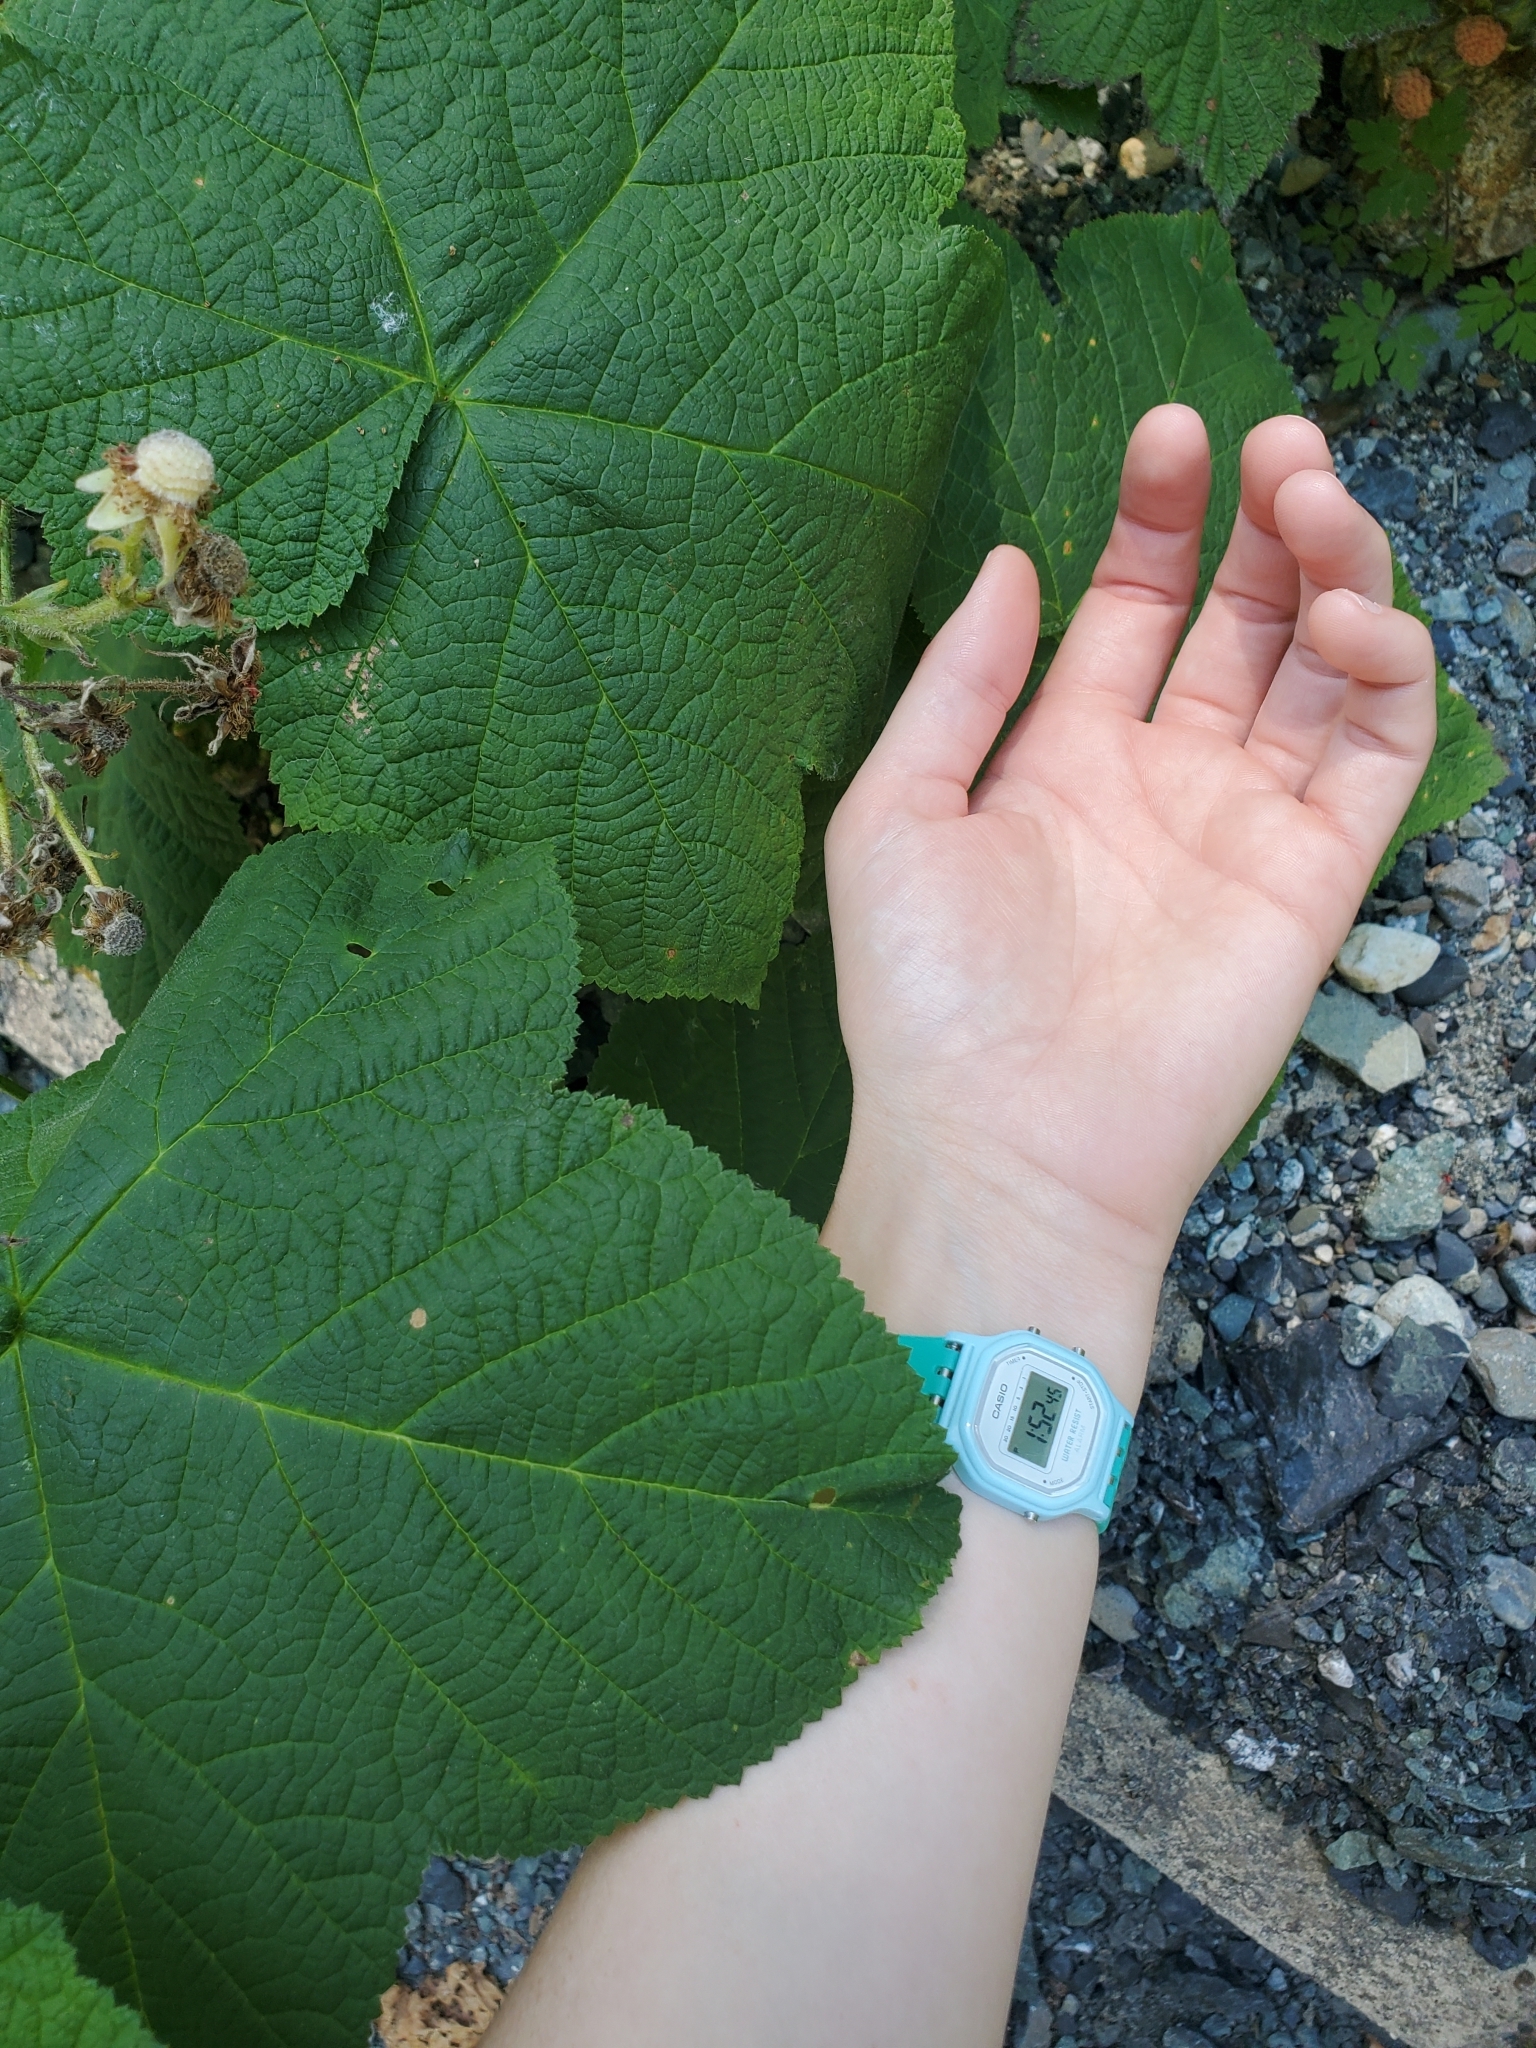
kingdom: Plantae
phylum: Tracheophyta
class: Magnoliopsida
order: Rosales
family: Rosaceae
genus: Rubus
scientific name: Rubus parviflorus
